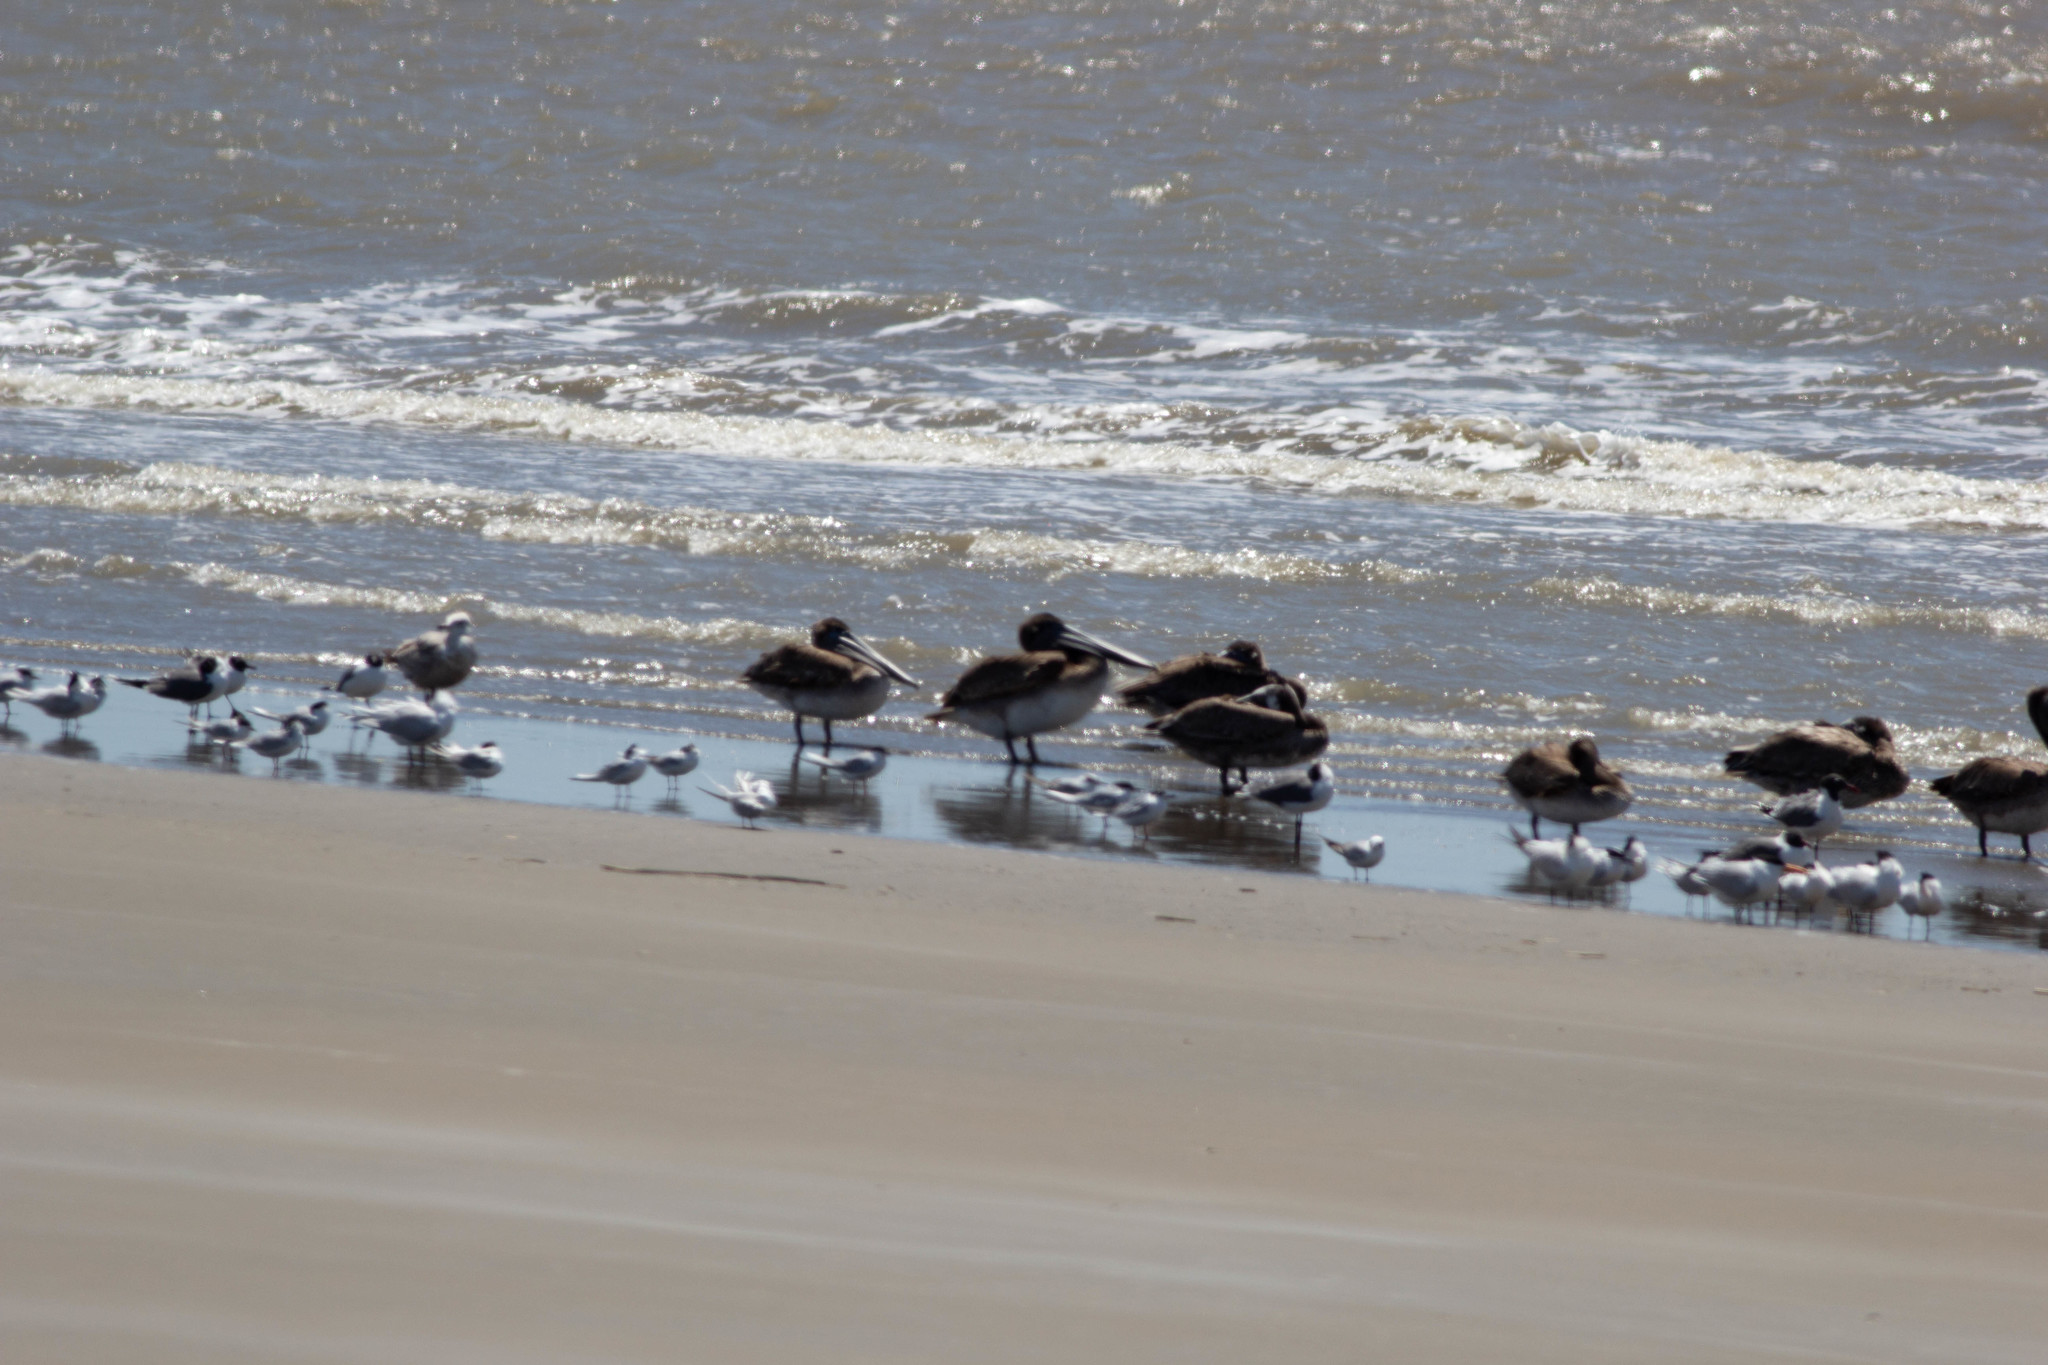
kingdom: Animalia
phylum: Chordata
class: Aves
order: Pelecaniformes
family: Pelecanidae
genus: Pelecanus
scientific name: Pelecanus occidentalis
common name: Brown pelican
